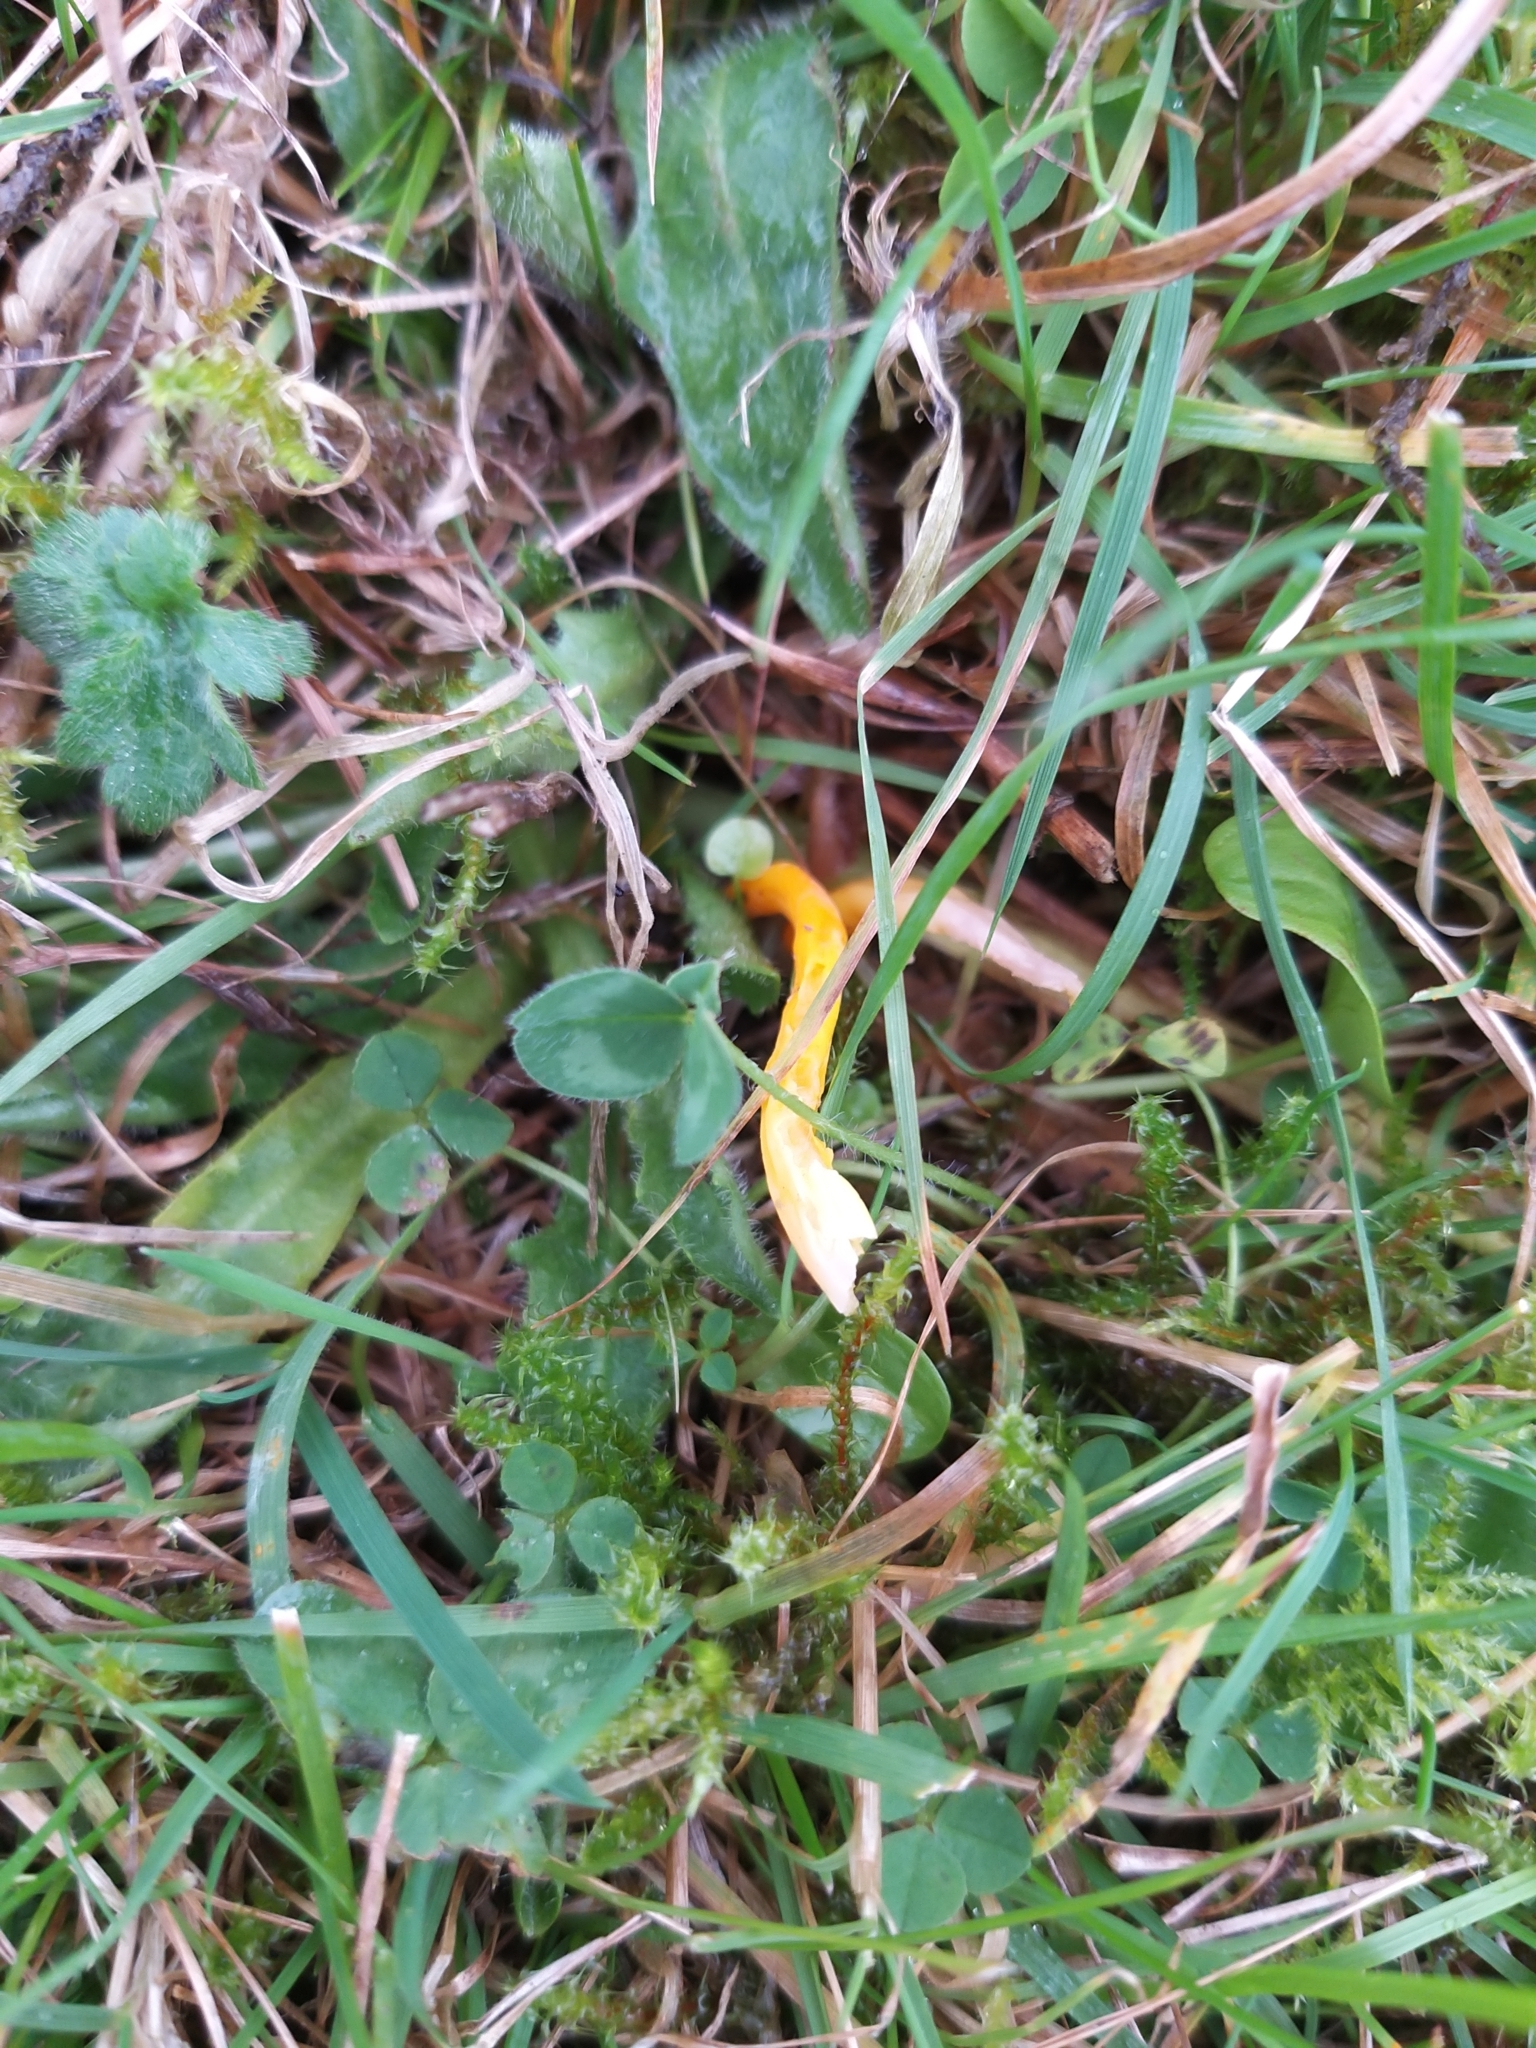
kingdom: Fungi
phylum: Basidiomycota
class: Agaricomycetes
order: Agaricales
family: Clavariaceae
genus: Clavulinopsis
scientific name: Clavulinopsis laeticolor
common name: Handsome club
